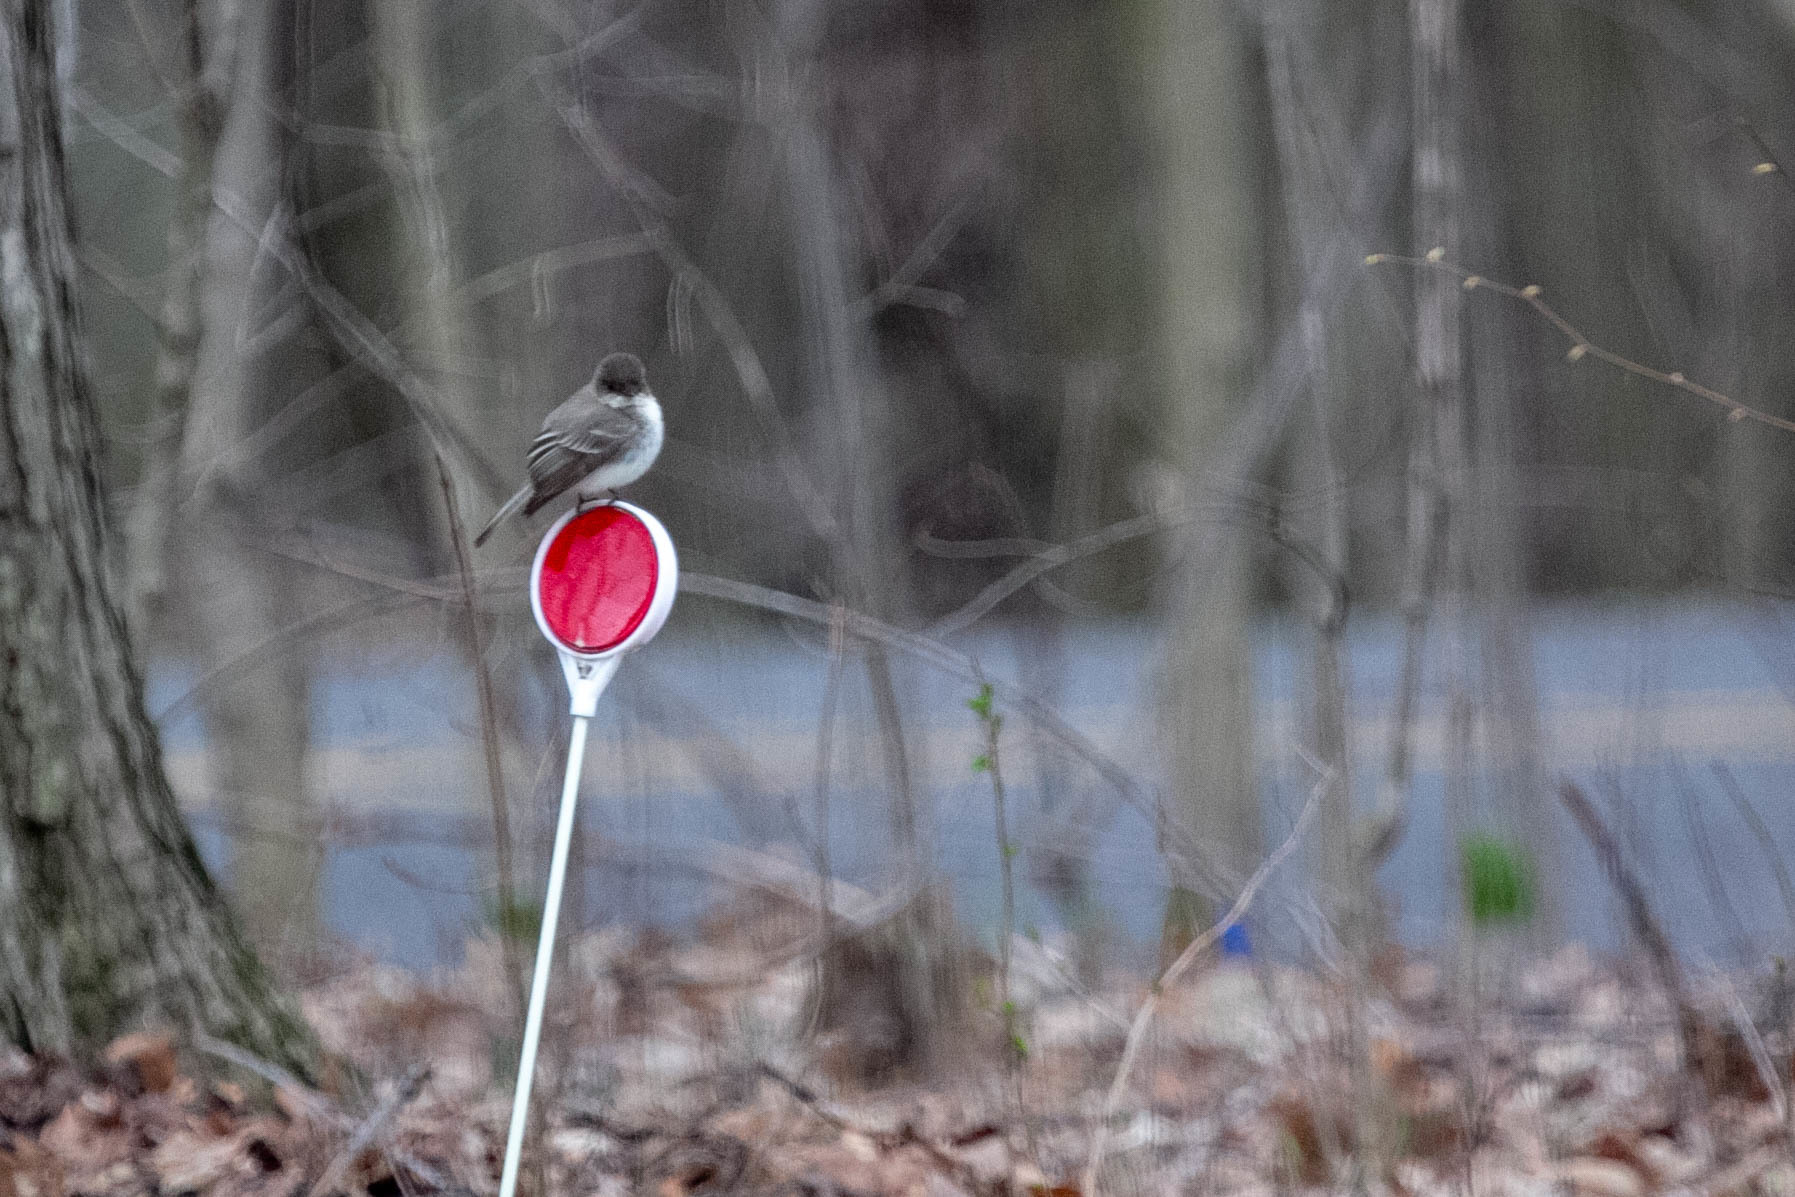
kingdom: Animalia
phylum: Chordata
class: Aves
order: Passeriformes
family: Tyrannidae
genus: Sayornis
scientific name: Sayornis phoebe
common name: Eastern phoebe
